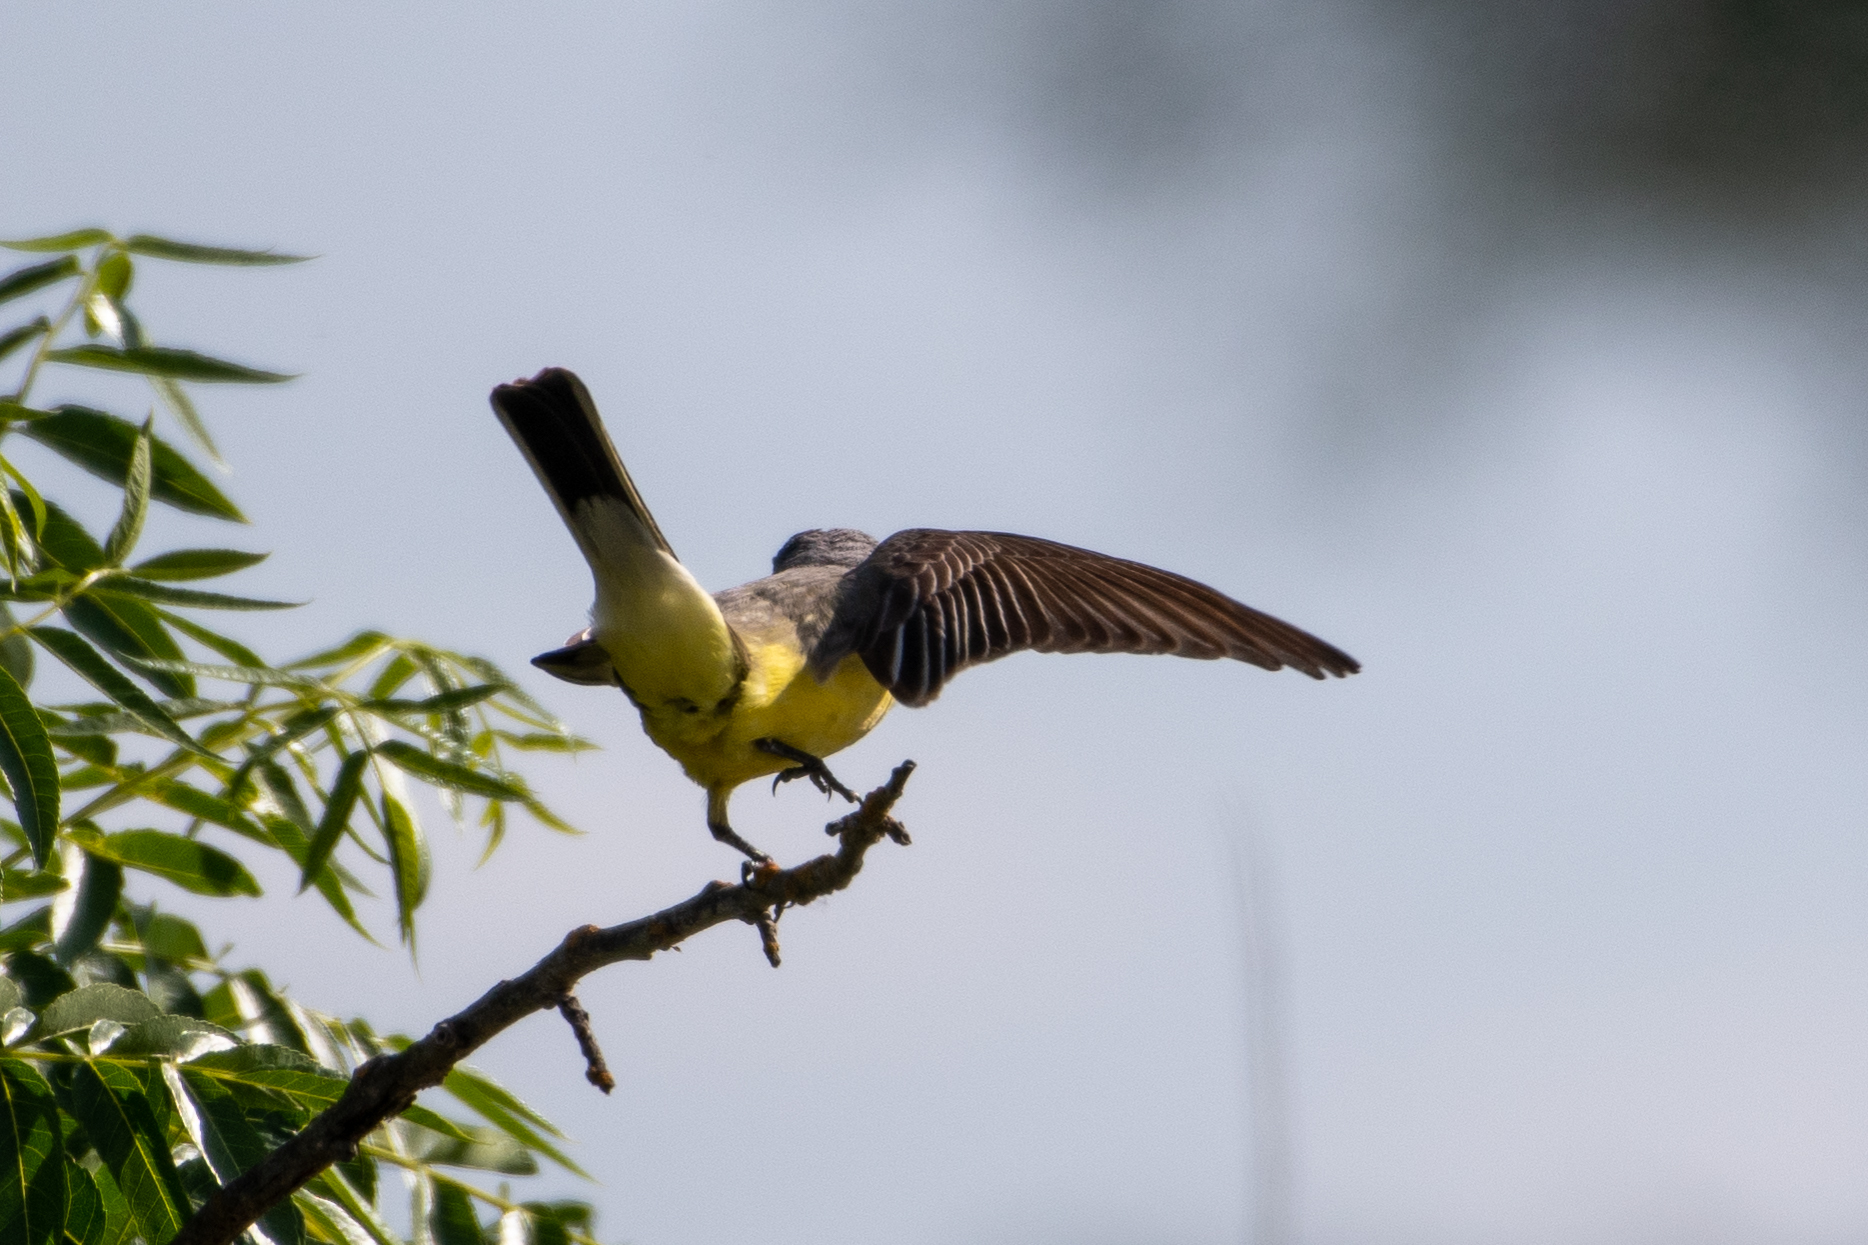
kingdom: Animalia
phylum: Chordata
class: Aves
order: Passeriformes
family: Tyrannidae
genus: Tyrannus
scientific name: Tyrannus verticalis
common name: Western kingbird
